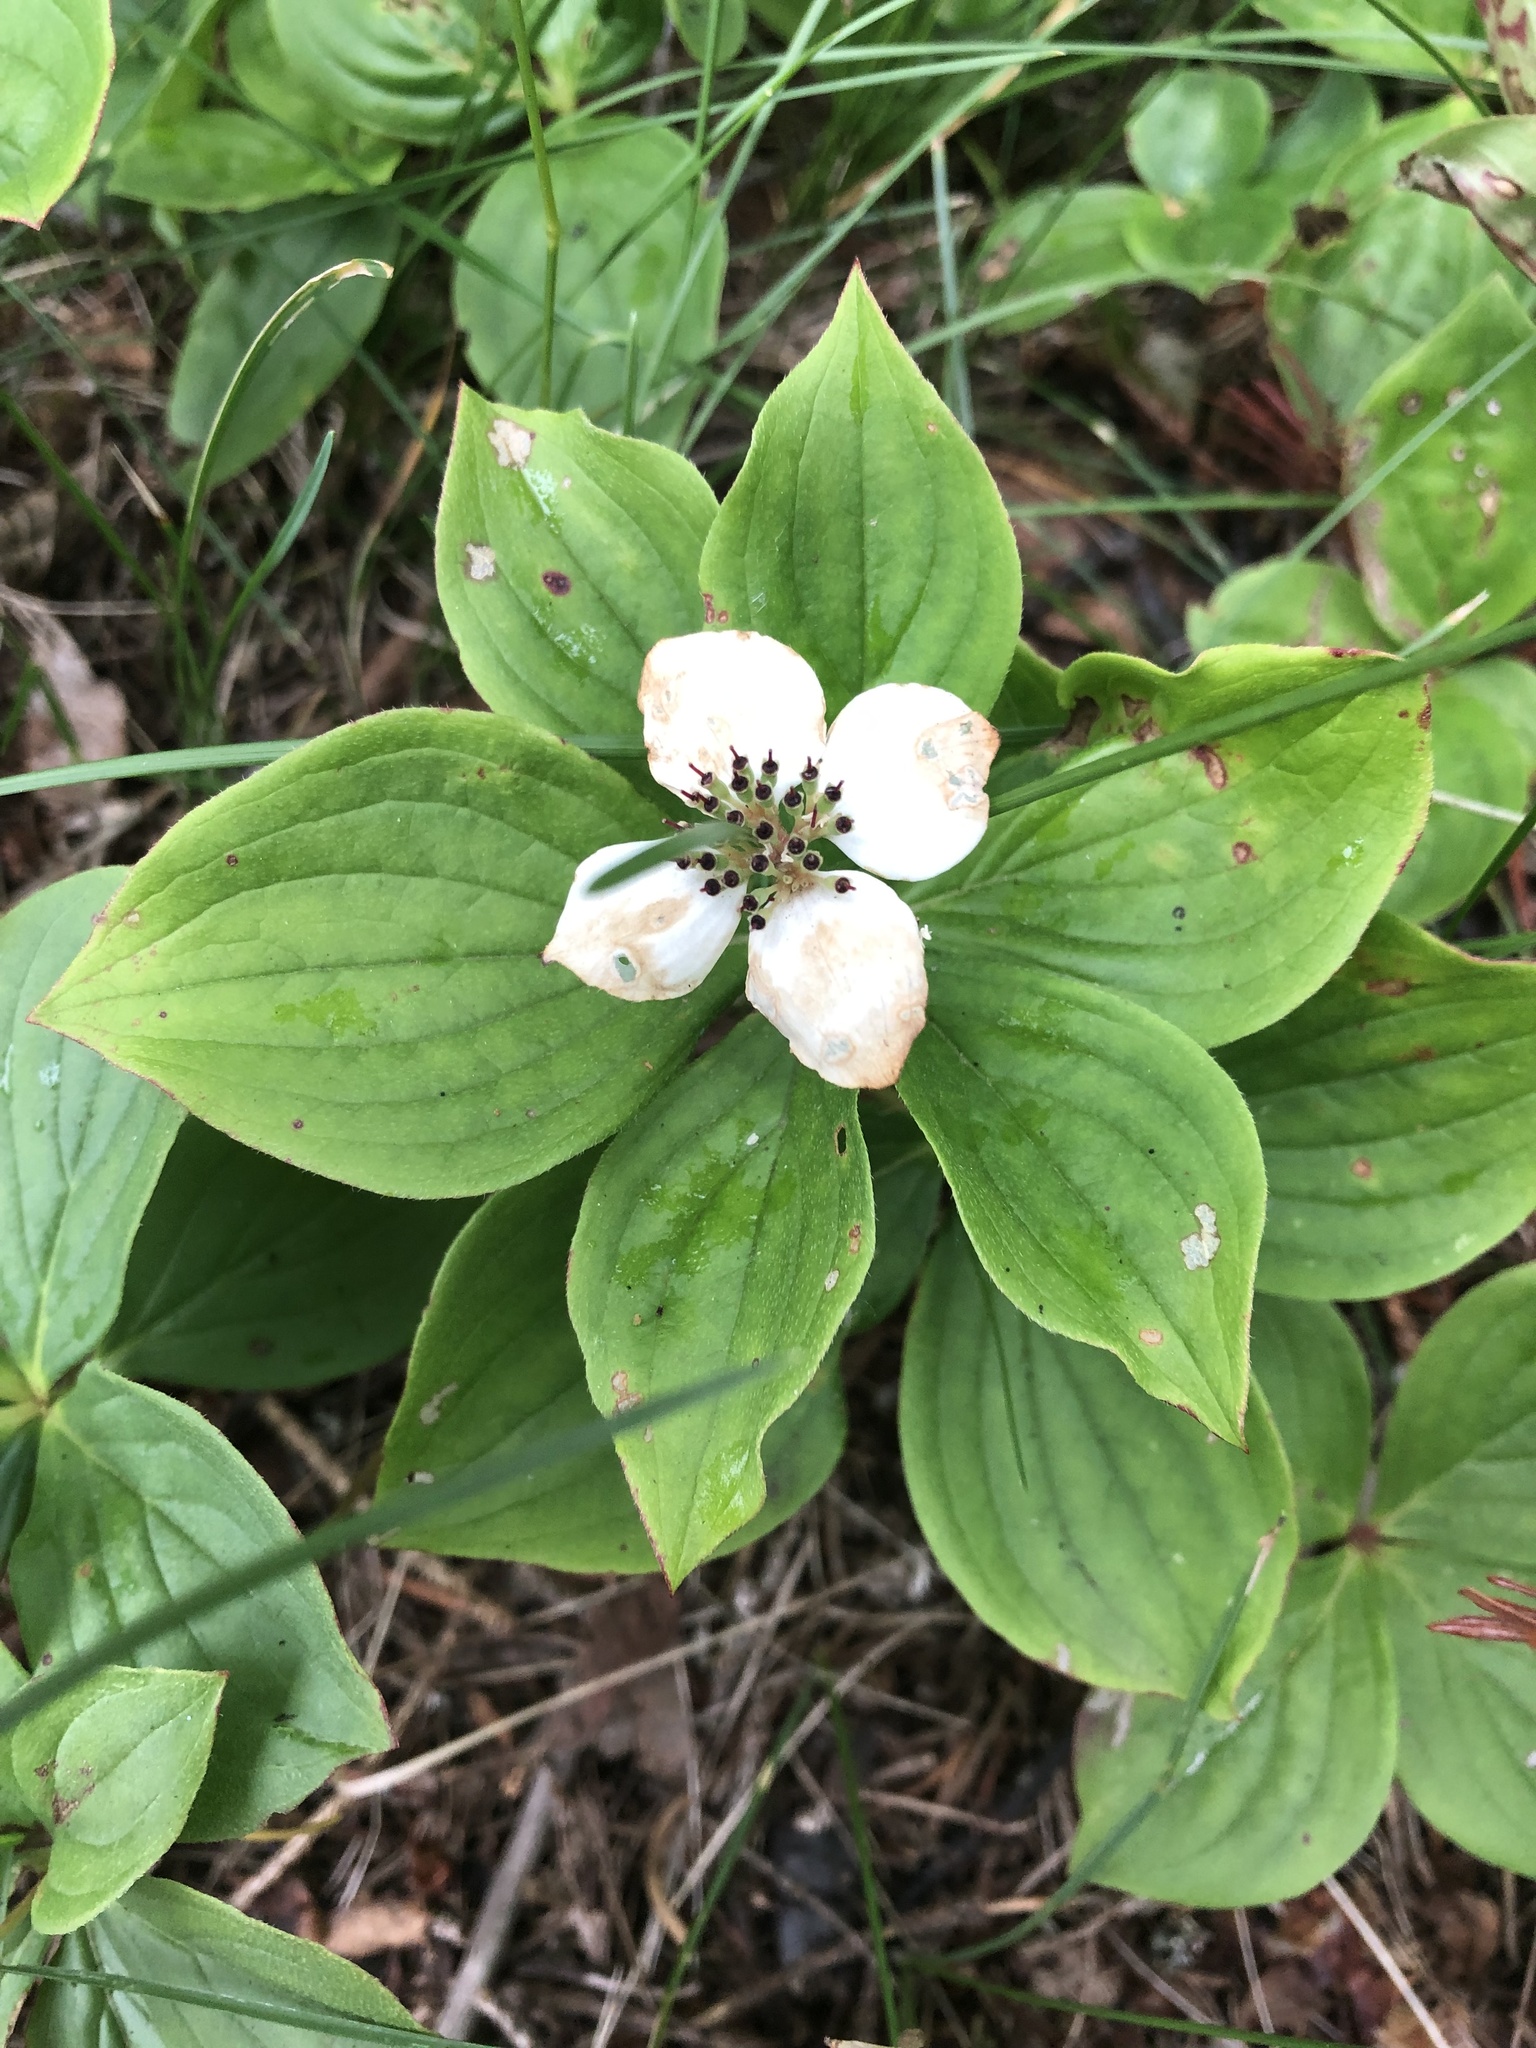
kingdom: Plantae
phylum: Tracheophyta
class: Magnoliopsida
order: Cornales
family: Cornaceae
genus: Cornus
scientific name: Cornus canadensis
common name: Creeping dogwood
